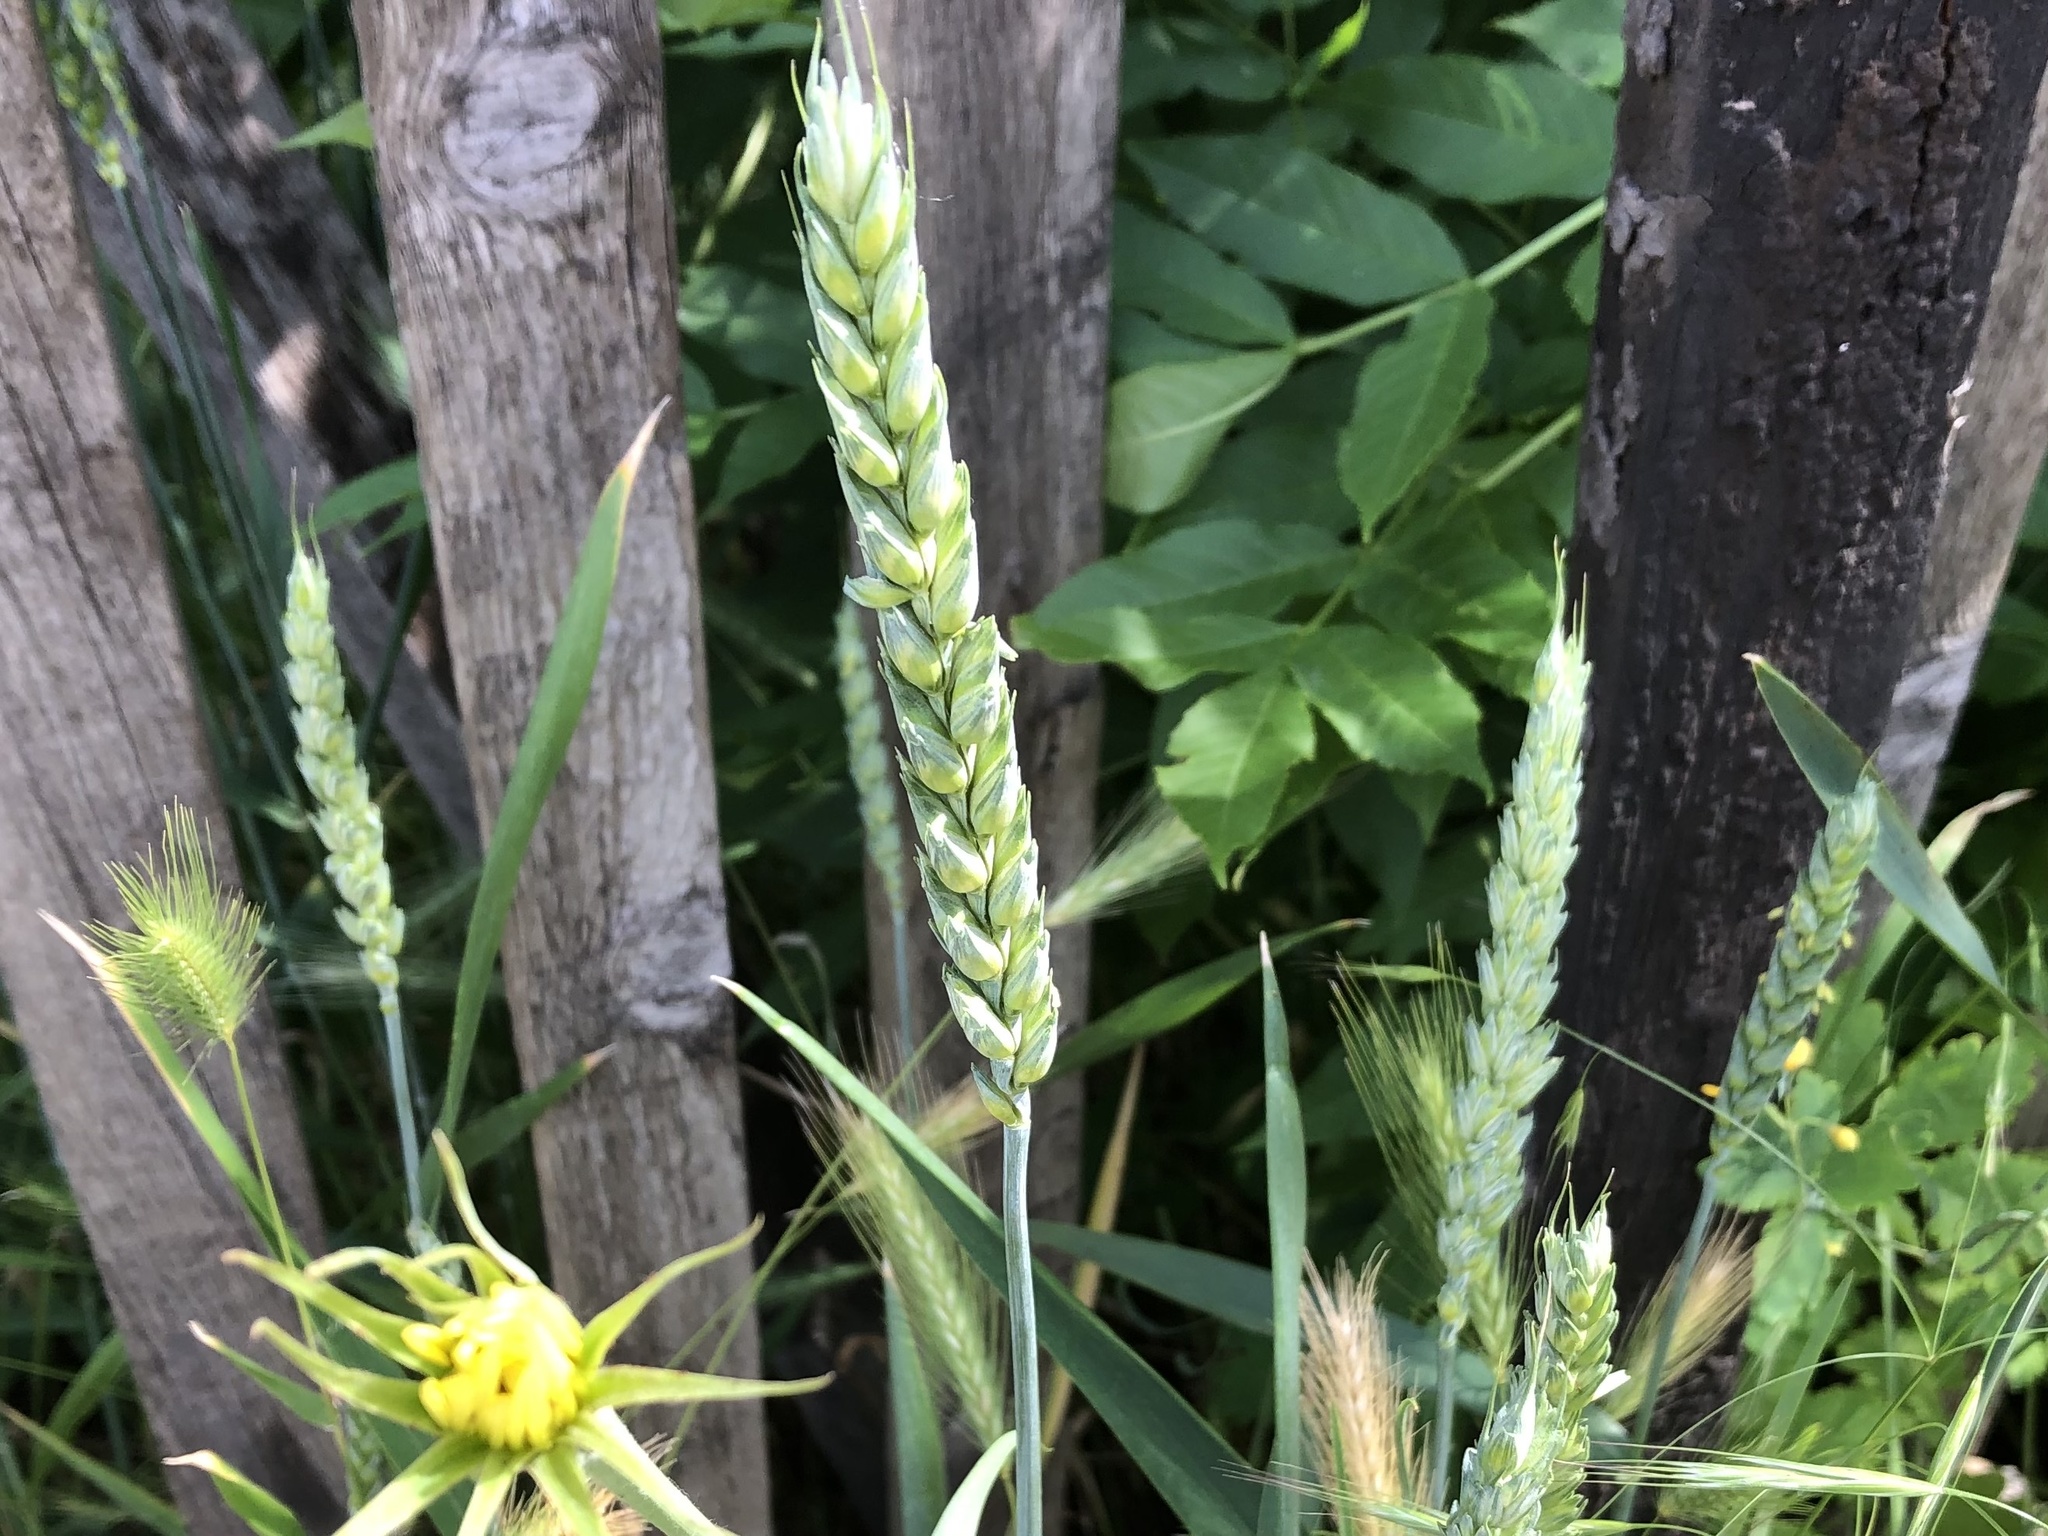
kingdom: Plantae
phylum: Tracheophyta
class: Liliopsida
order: Poales
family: Poaceae
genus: Triticum
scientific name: Triticum aestivum
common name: Common wheat
